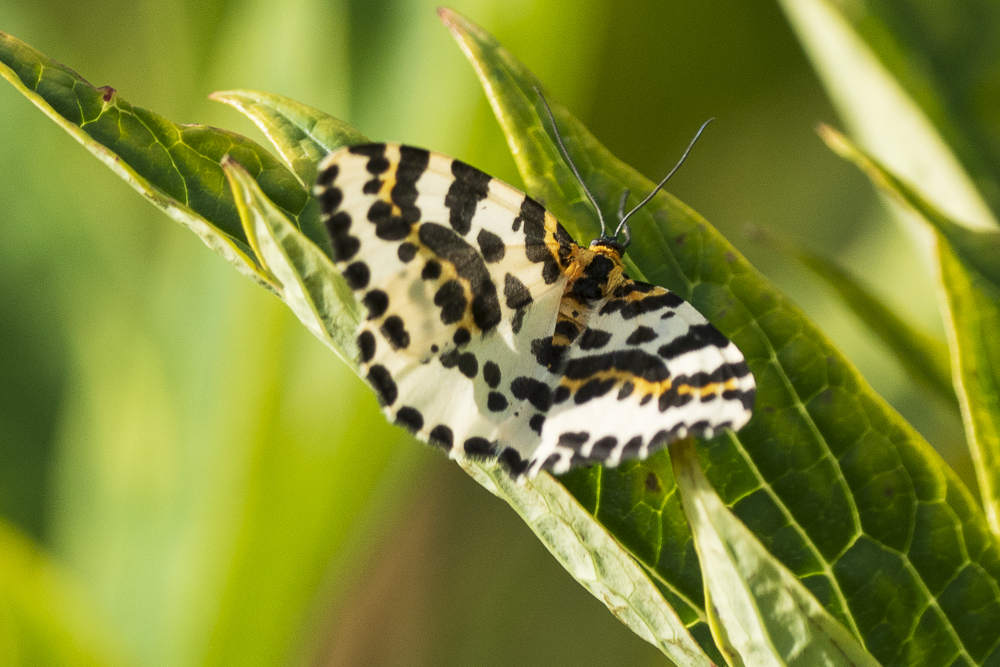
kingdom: Animalia
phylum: Arthropoda
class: Insecta
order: Lepidoptera
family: Geometridae
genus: Abraxas
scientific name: Abraxas grossulariata
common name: Magpie
